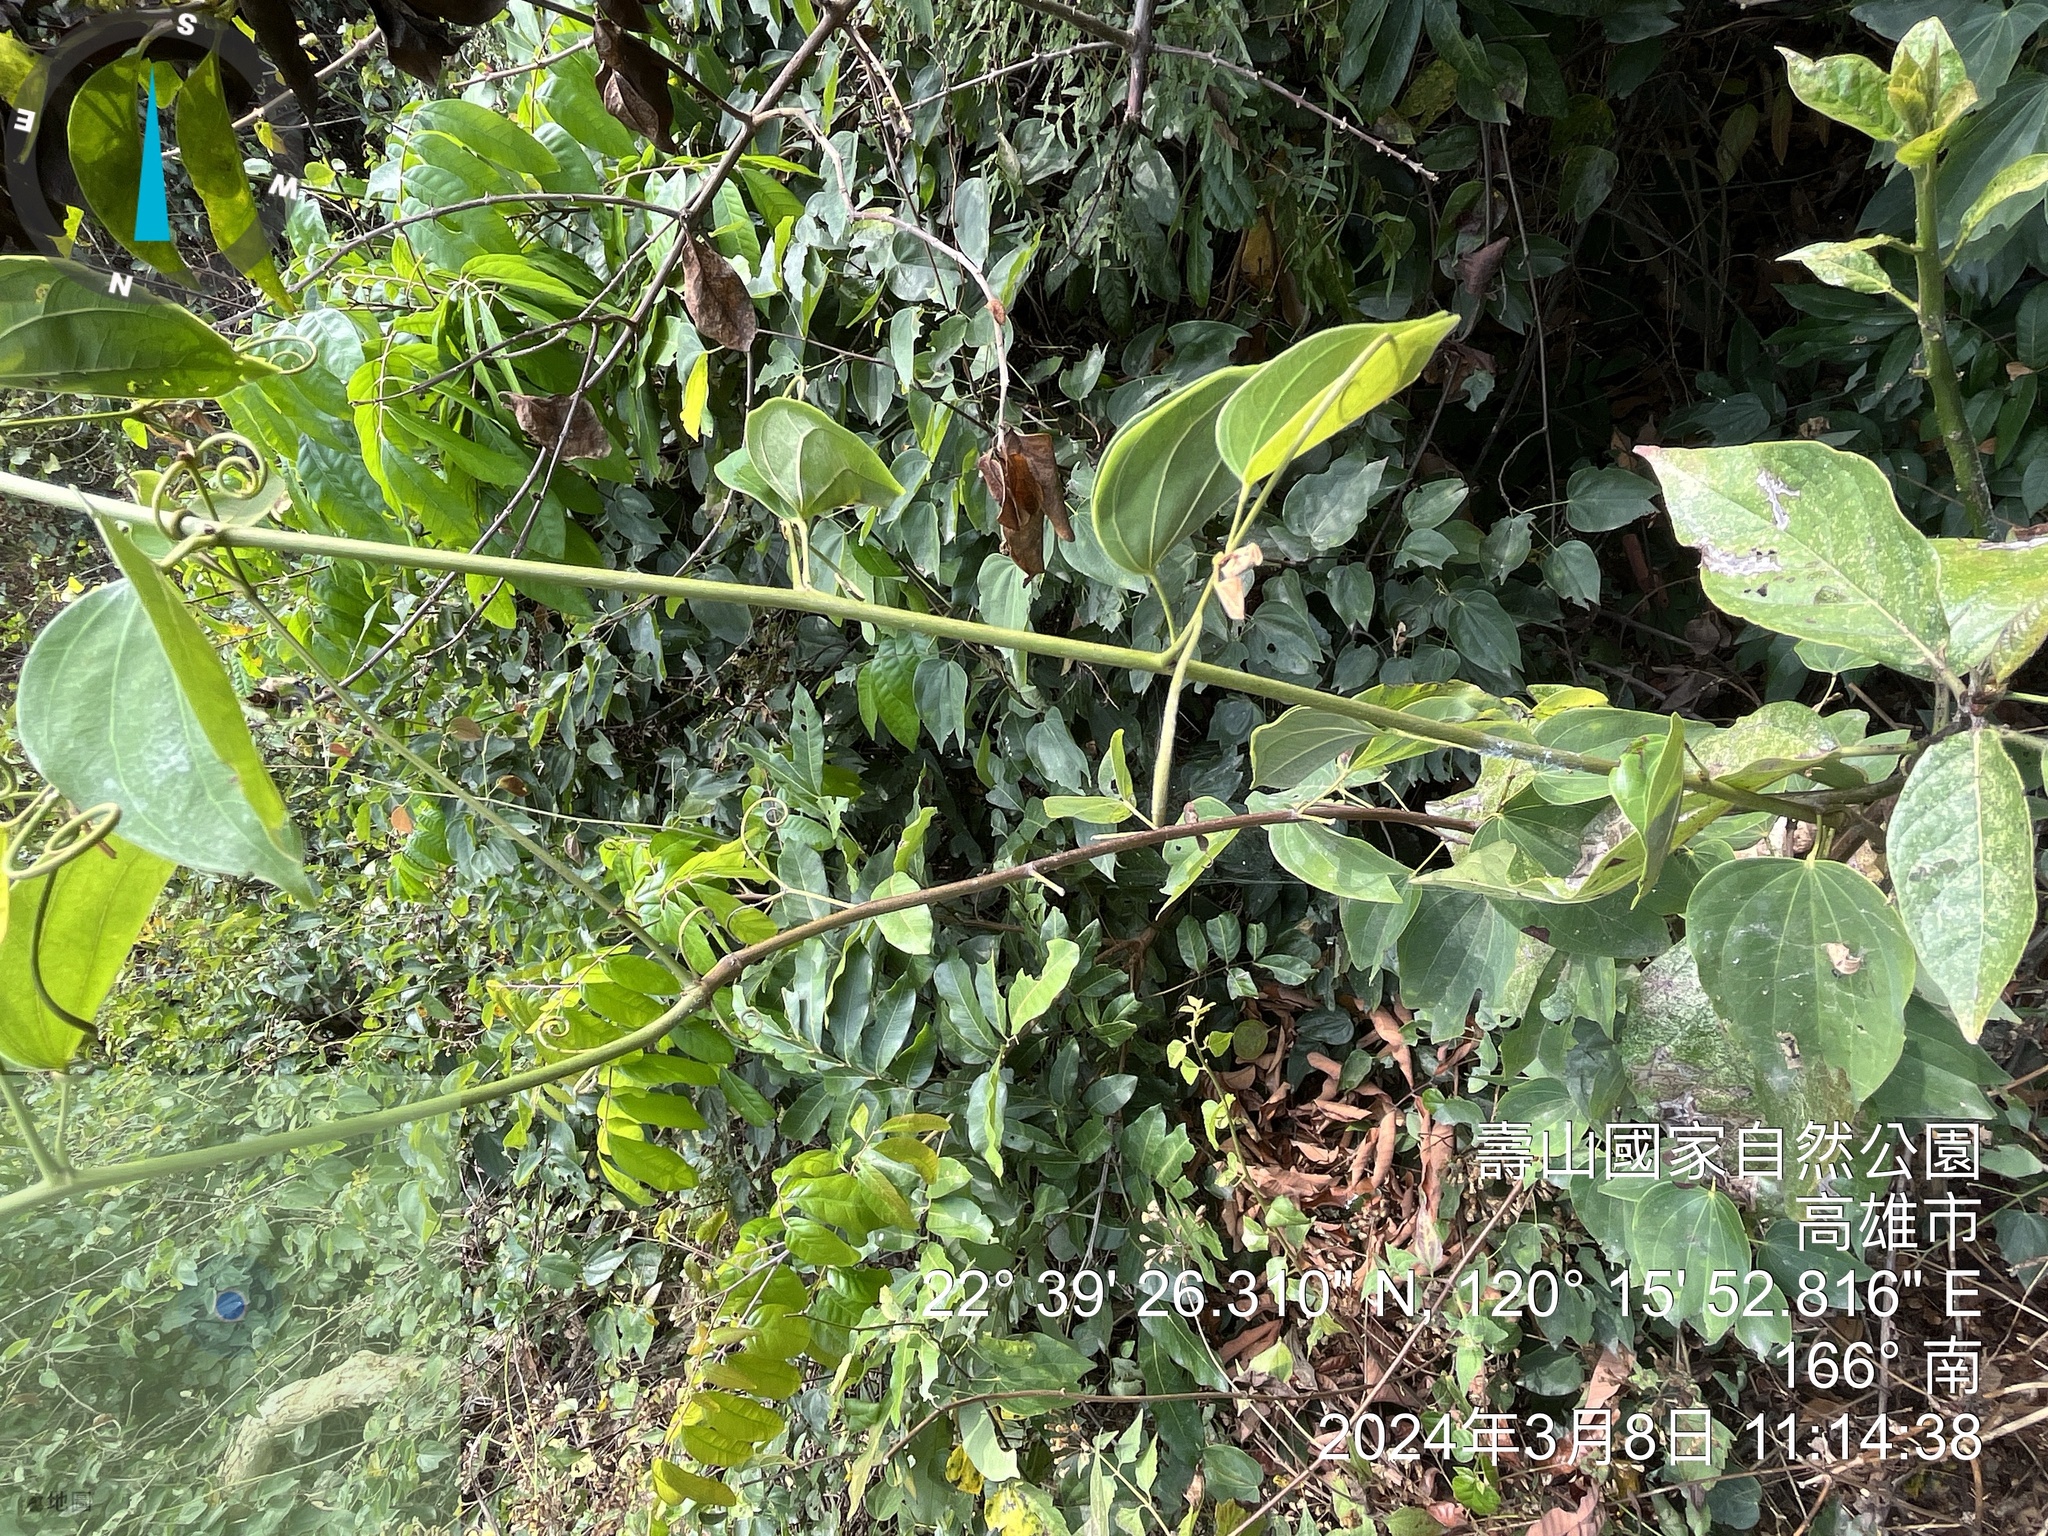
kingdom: Plantae
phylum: Tracheophyta
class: Magnoliopsida
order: Fabales
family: Fabaceae
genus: Phanera
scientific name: Phanera championii
